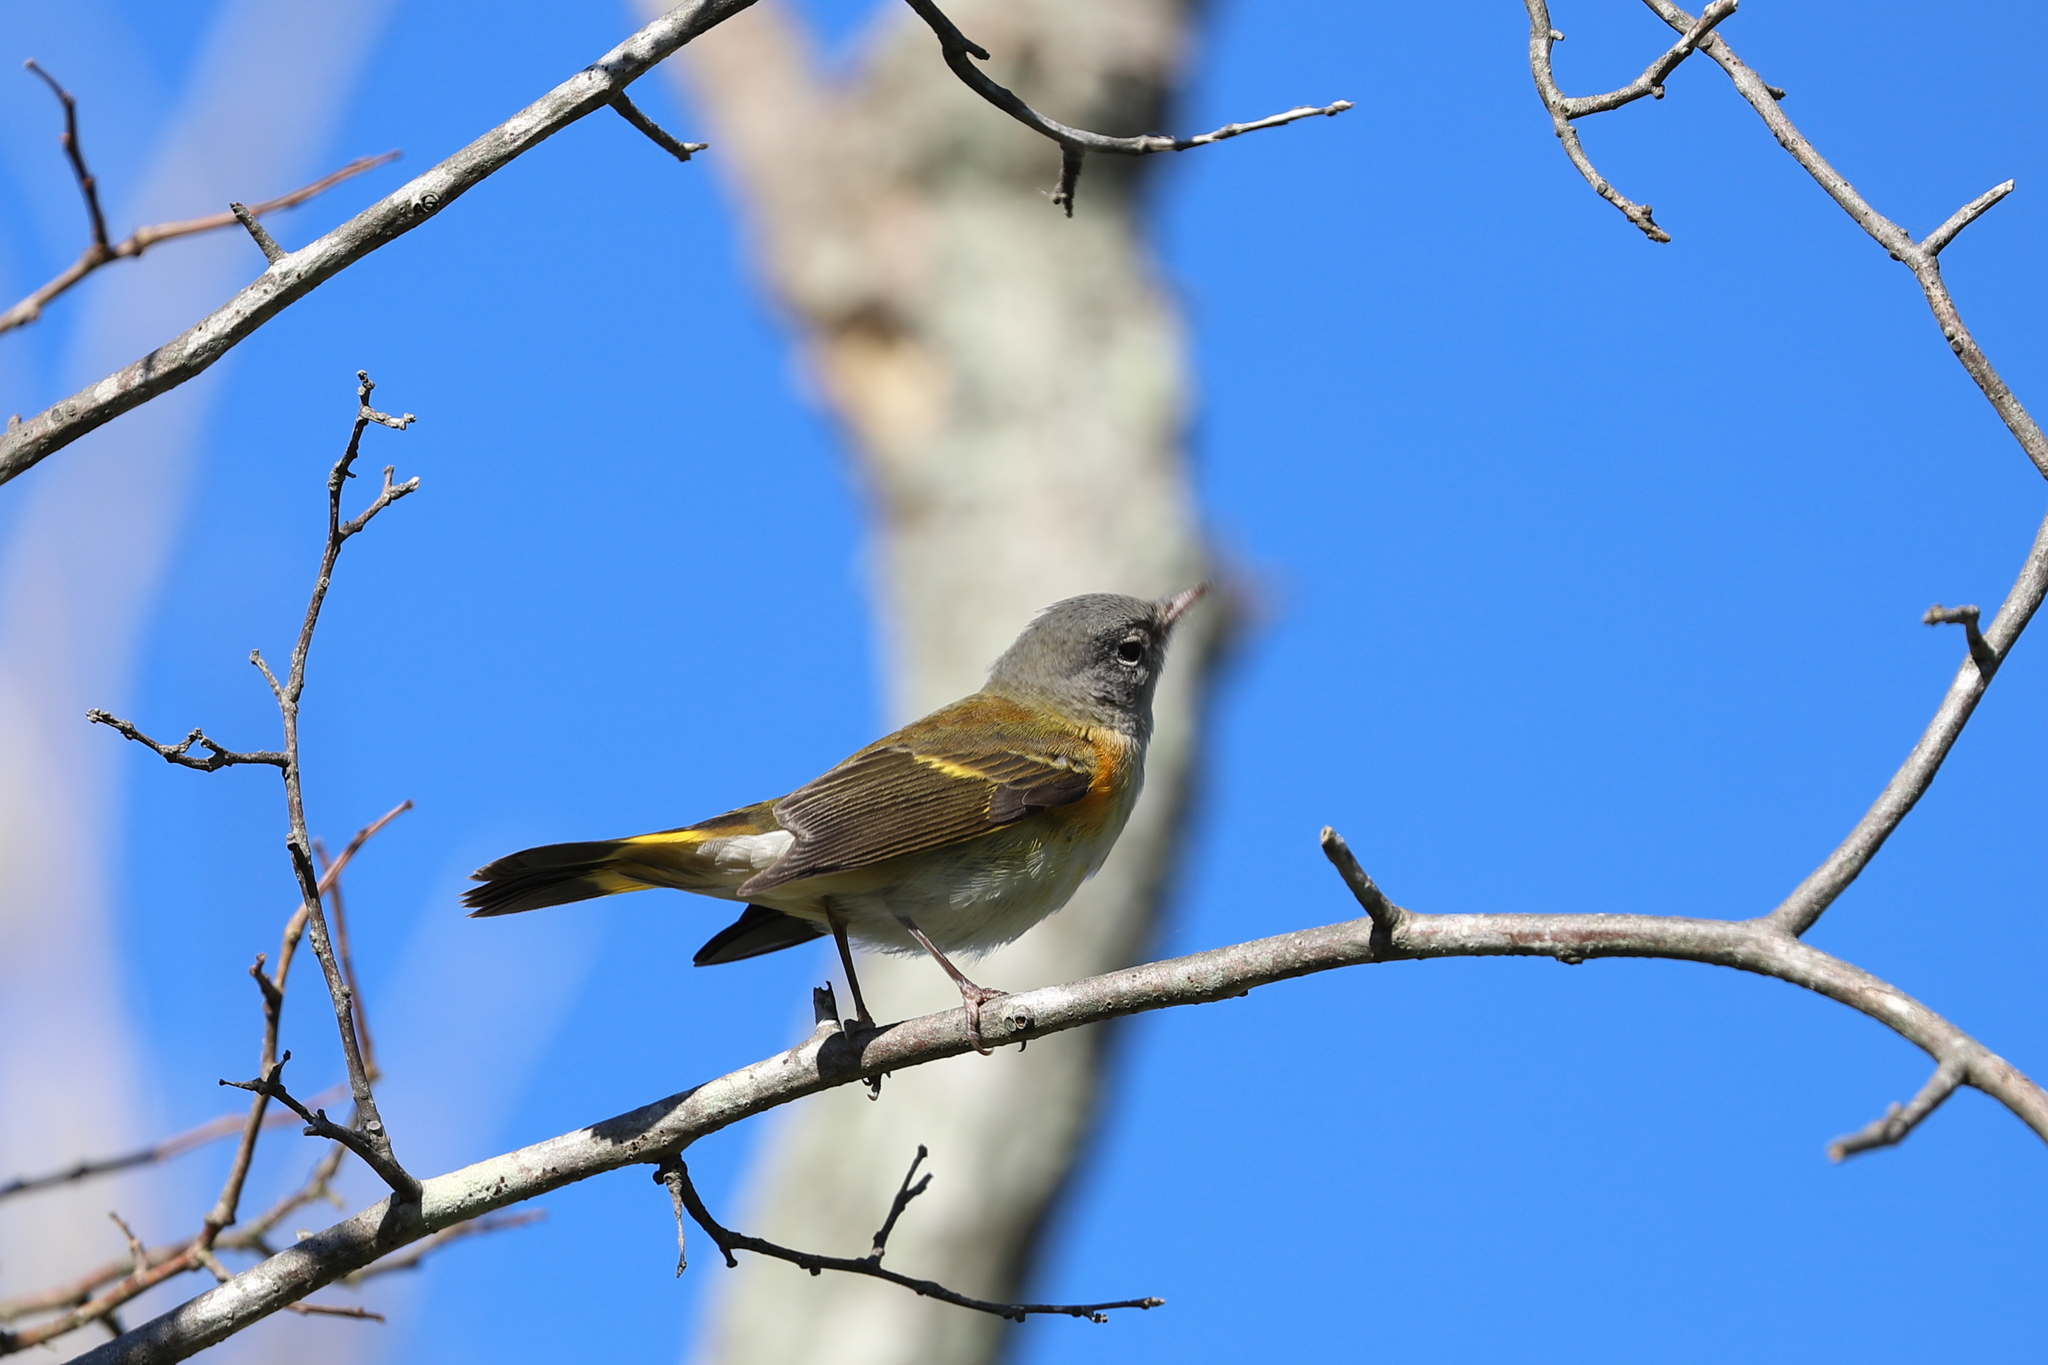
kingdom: Animalia
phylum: Chordata
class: Aves
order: Passeriformes
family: Parulidae
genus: Setophaga
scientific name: Setophaga ruticilla
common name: American redstart
